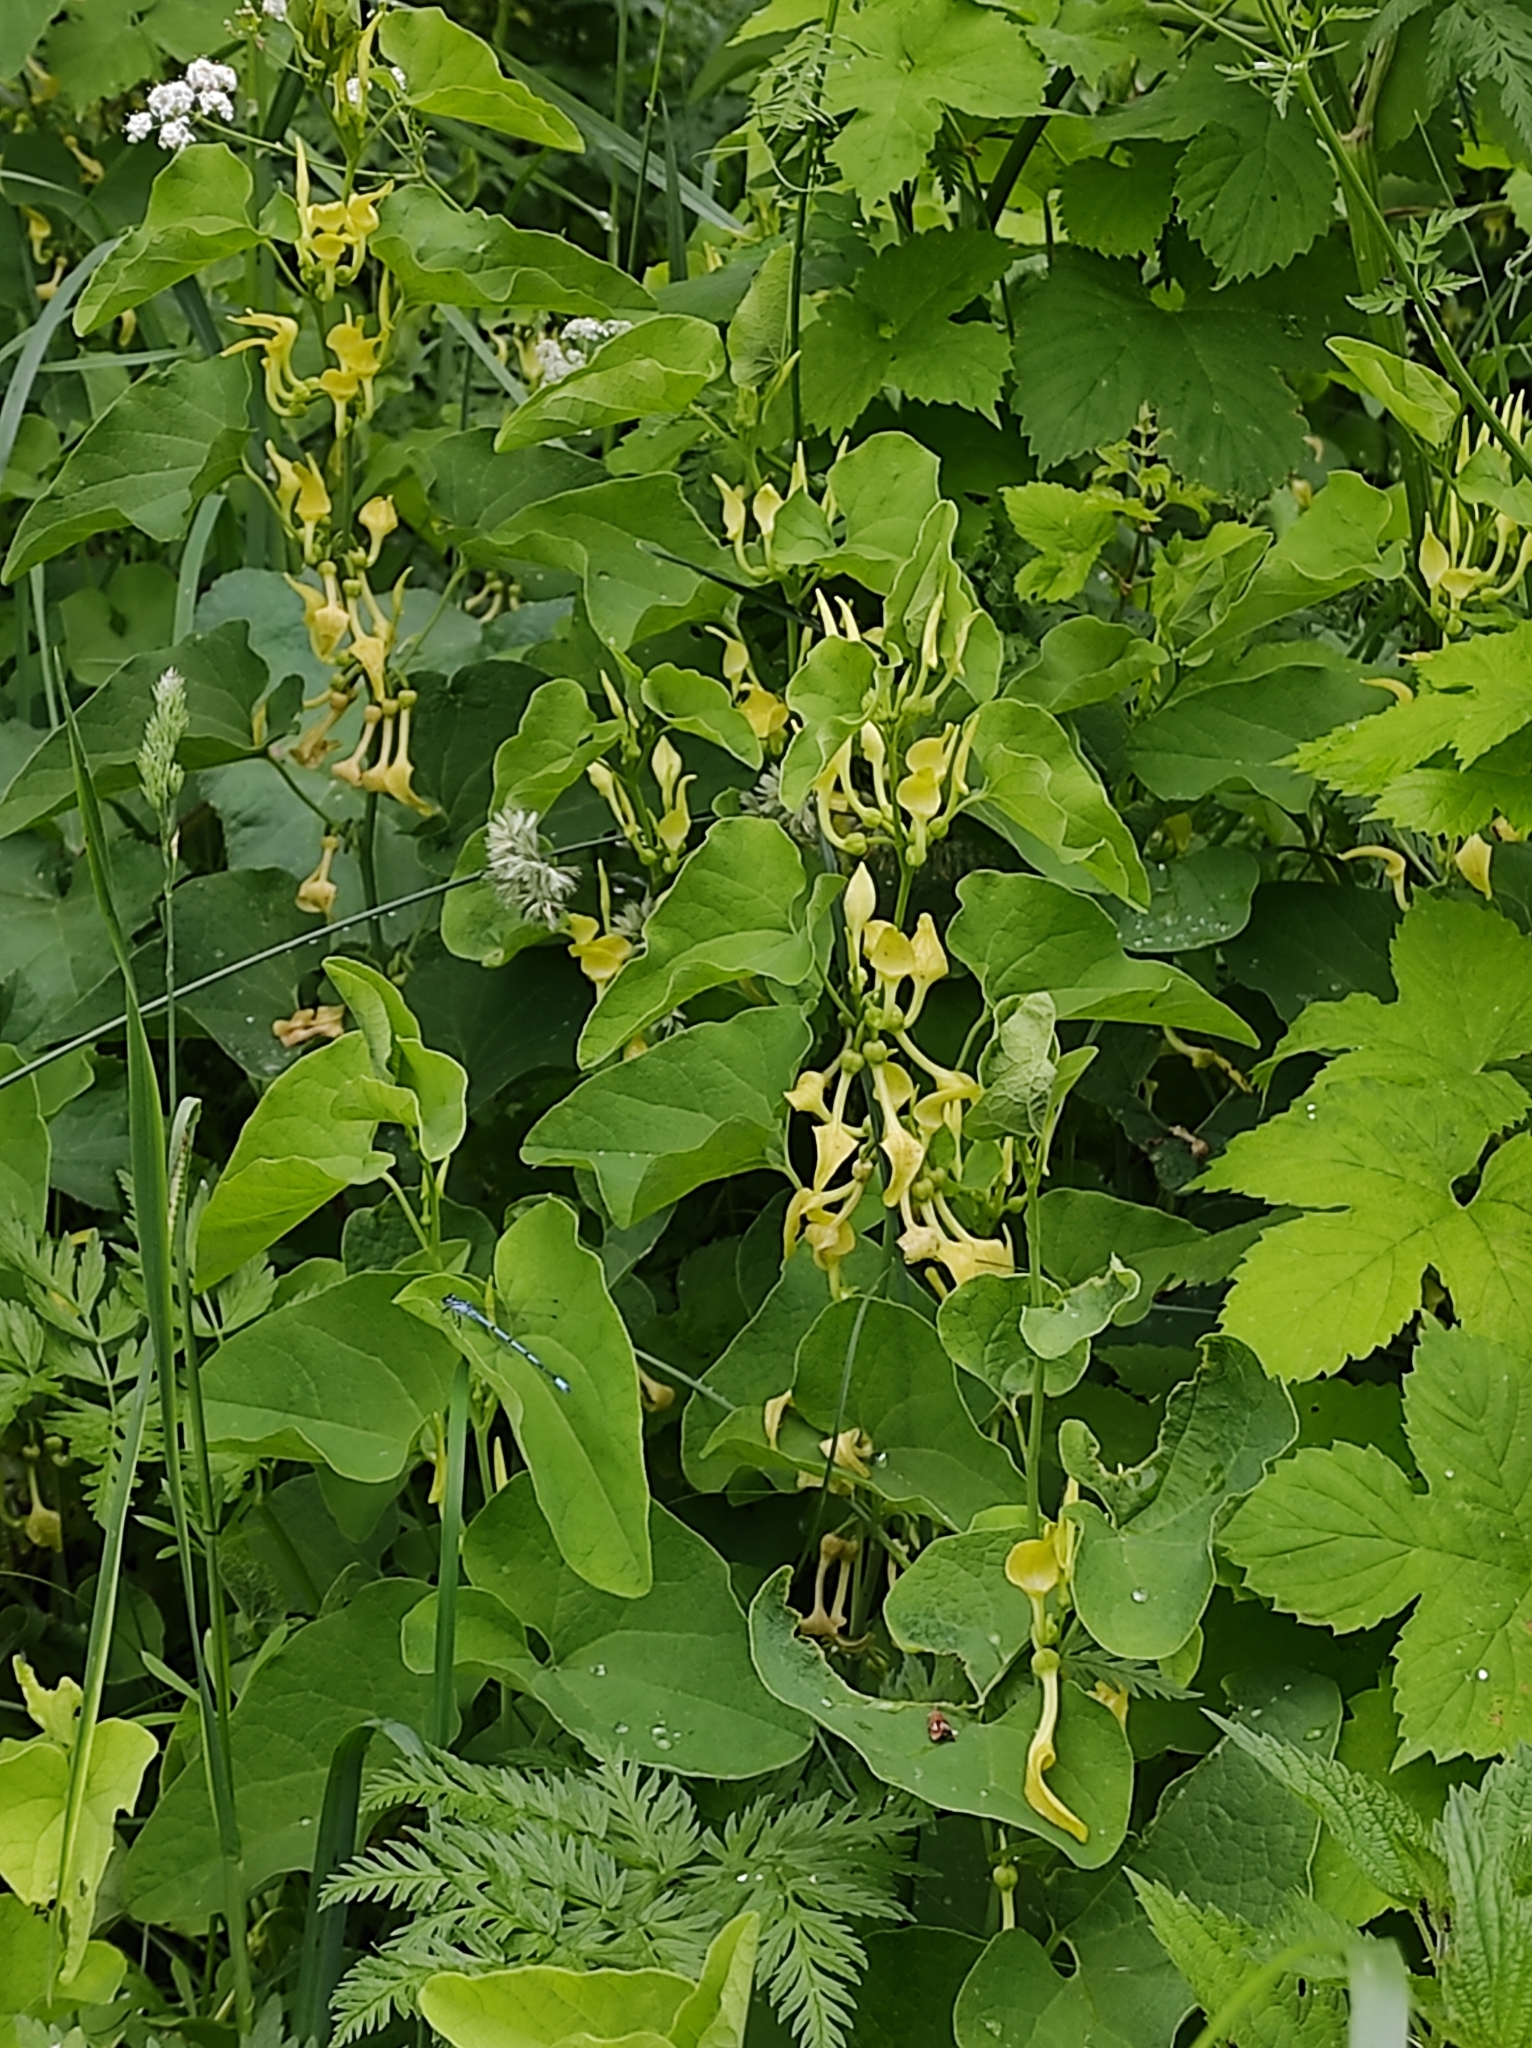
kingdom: Plantae
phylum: Tracheophyta
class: Magnoliopsida
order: Piperales
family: Aristolochiaceae
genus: Aristolochia
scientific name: Aristolochia clematitis
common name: Birthwort
